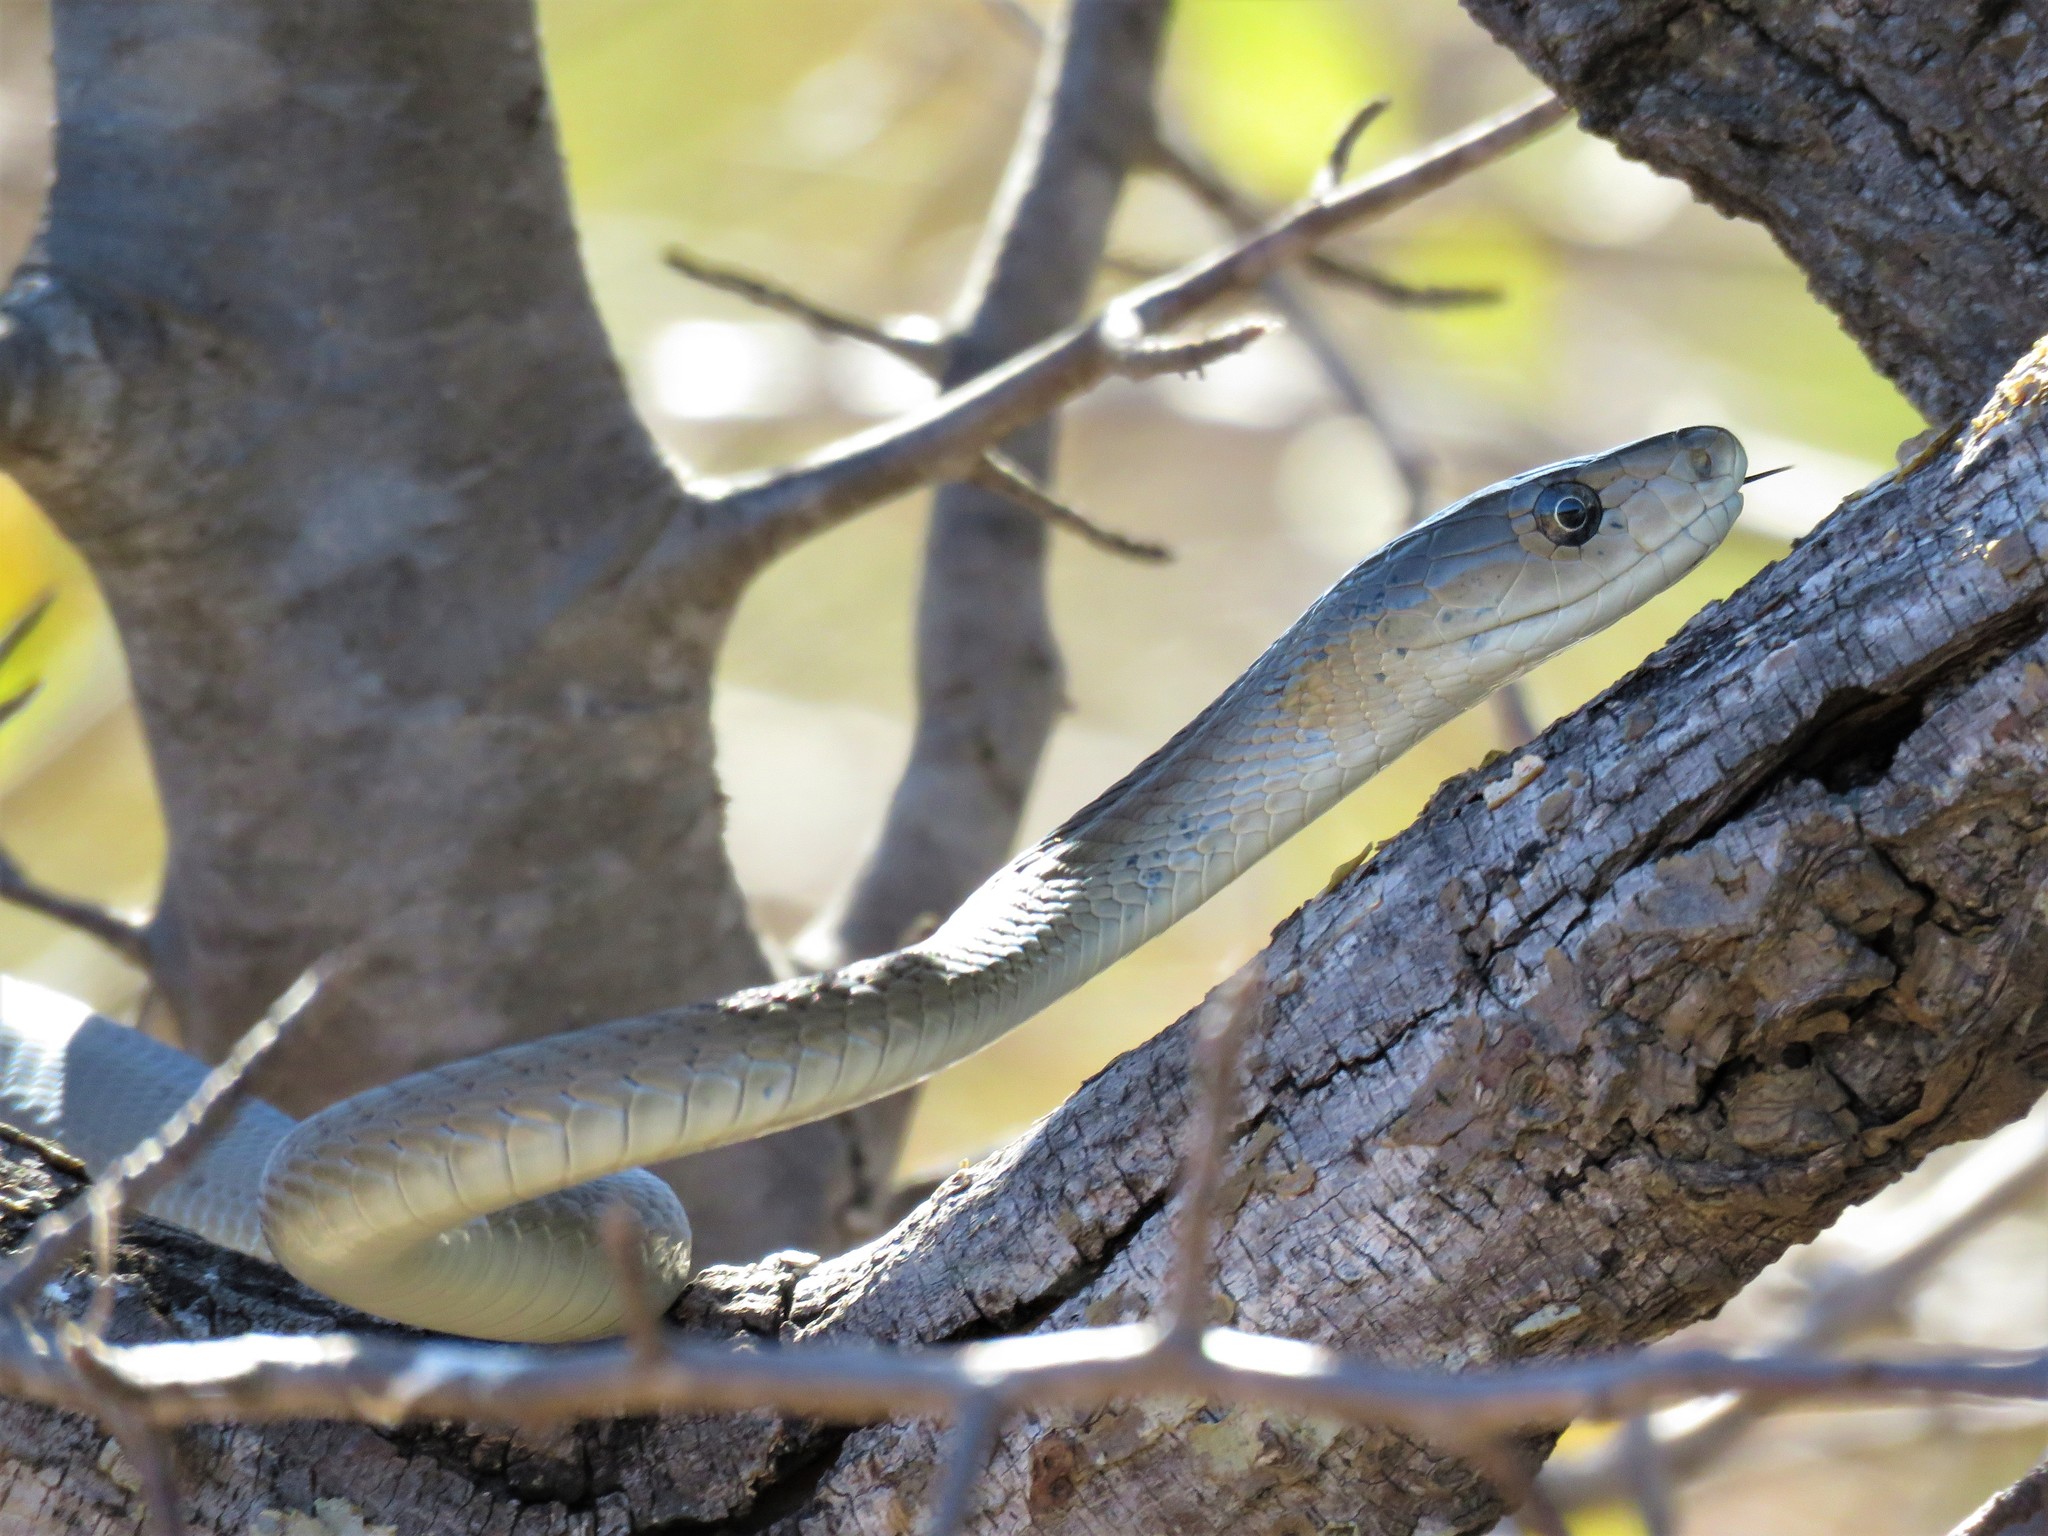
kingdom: Animalia
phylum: Chordata
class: Squamata
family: Elapidae
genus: Dendroaspis
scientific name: Dendroaspis polylepis
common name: Black mamba
